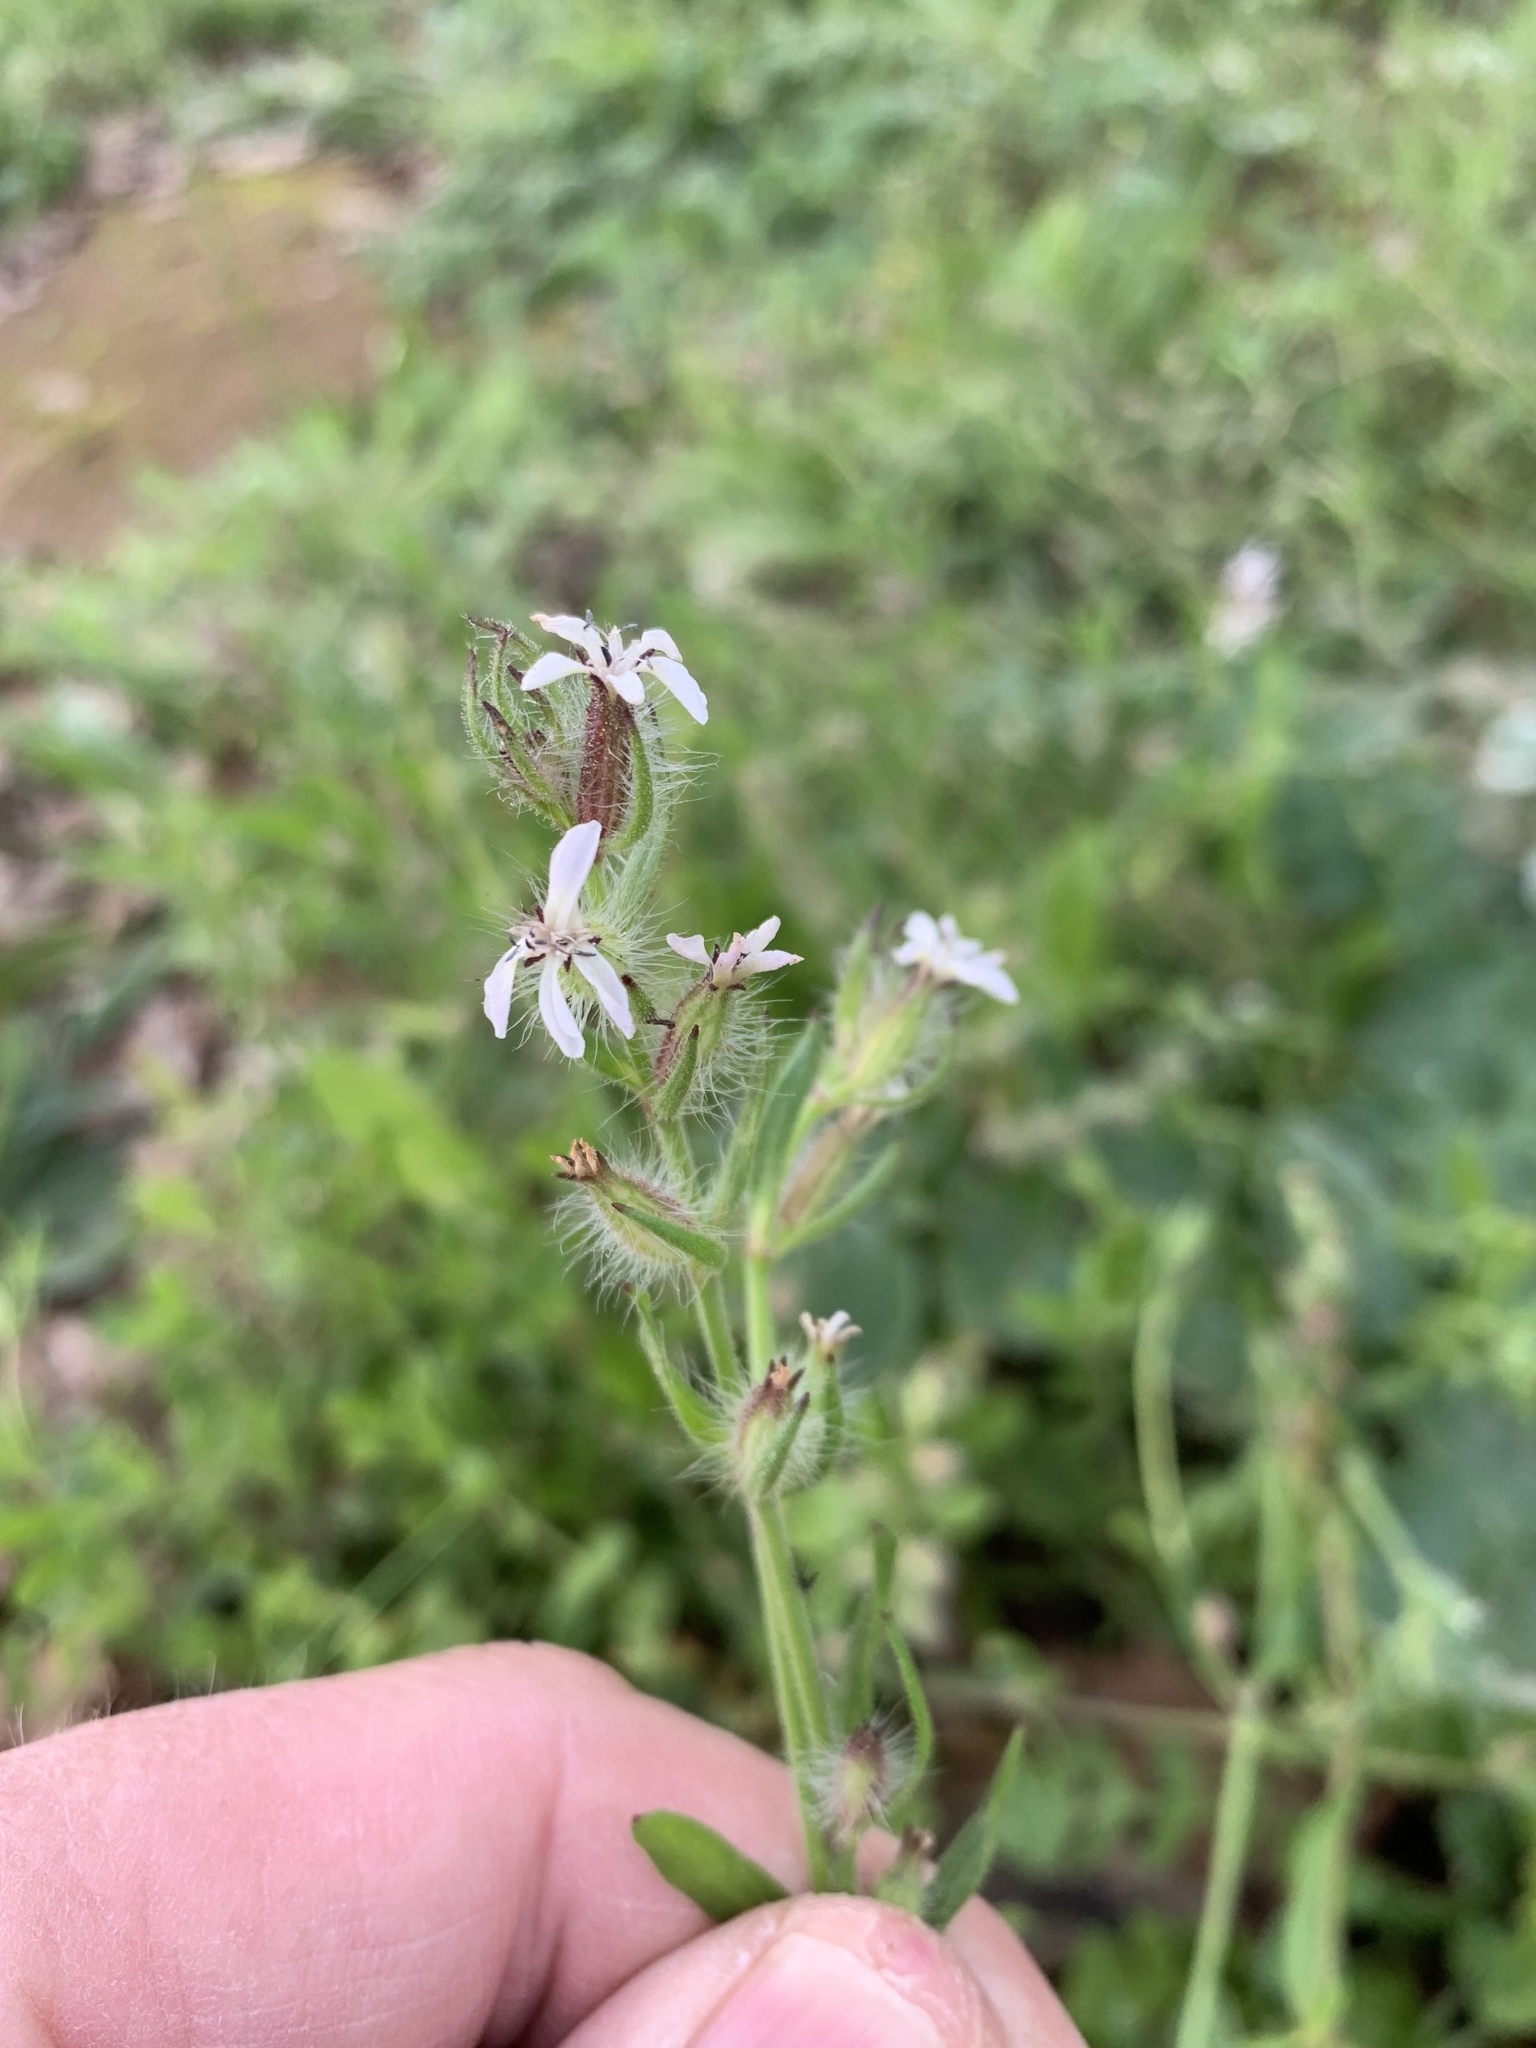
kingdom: Plantae
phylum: Tracheophyta
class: Magnoliopsida
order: Caryophyllales
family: Caryophyllaceae
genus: Silene
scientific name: Silene gallica
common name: Small-flowered catchfly
